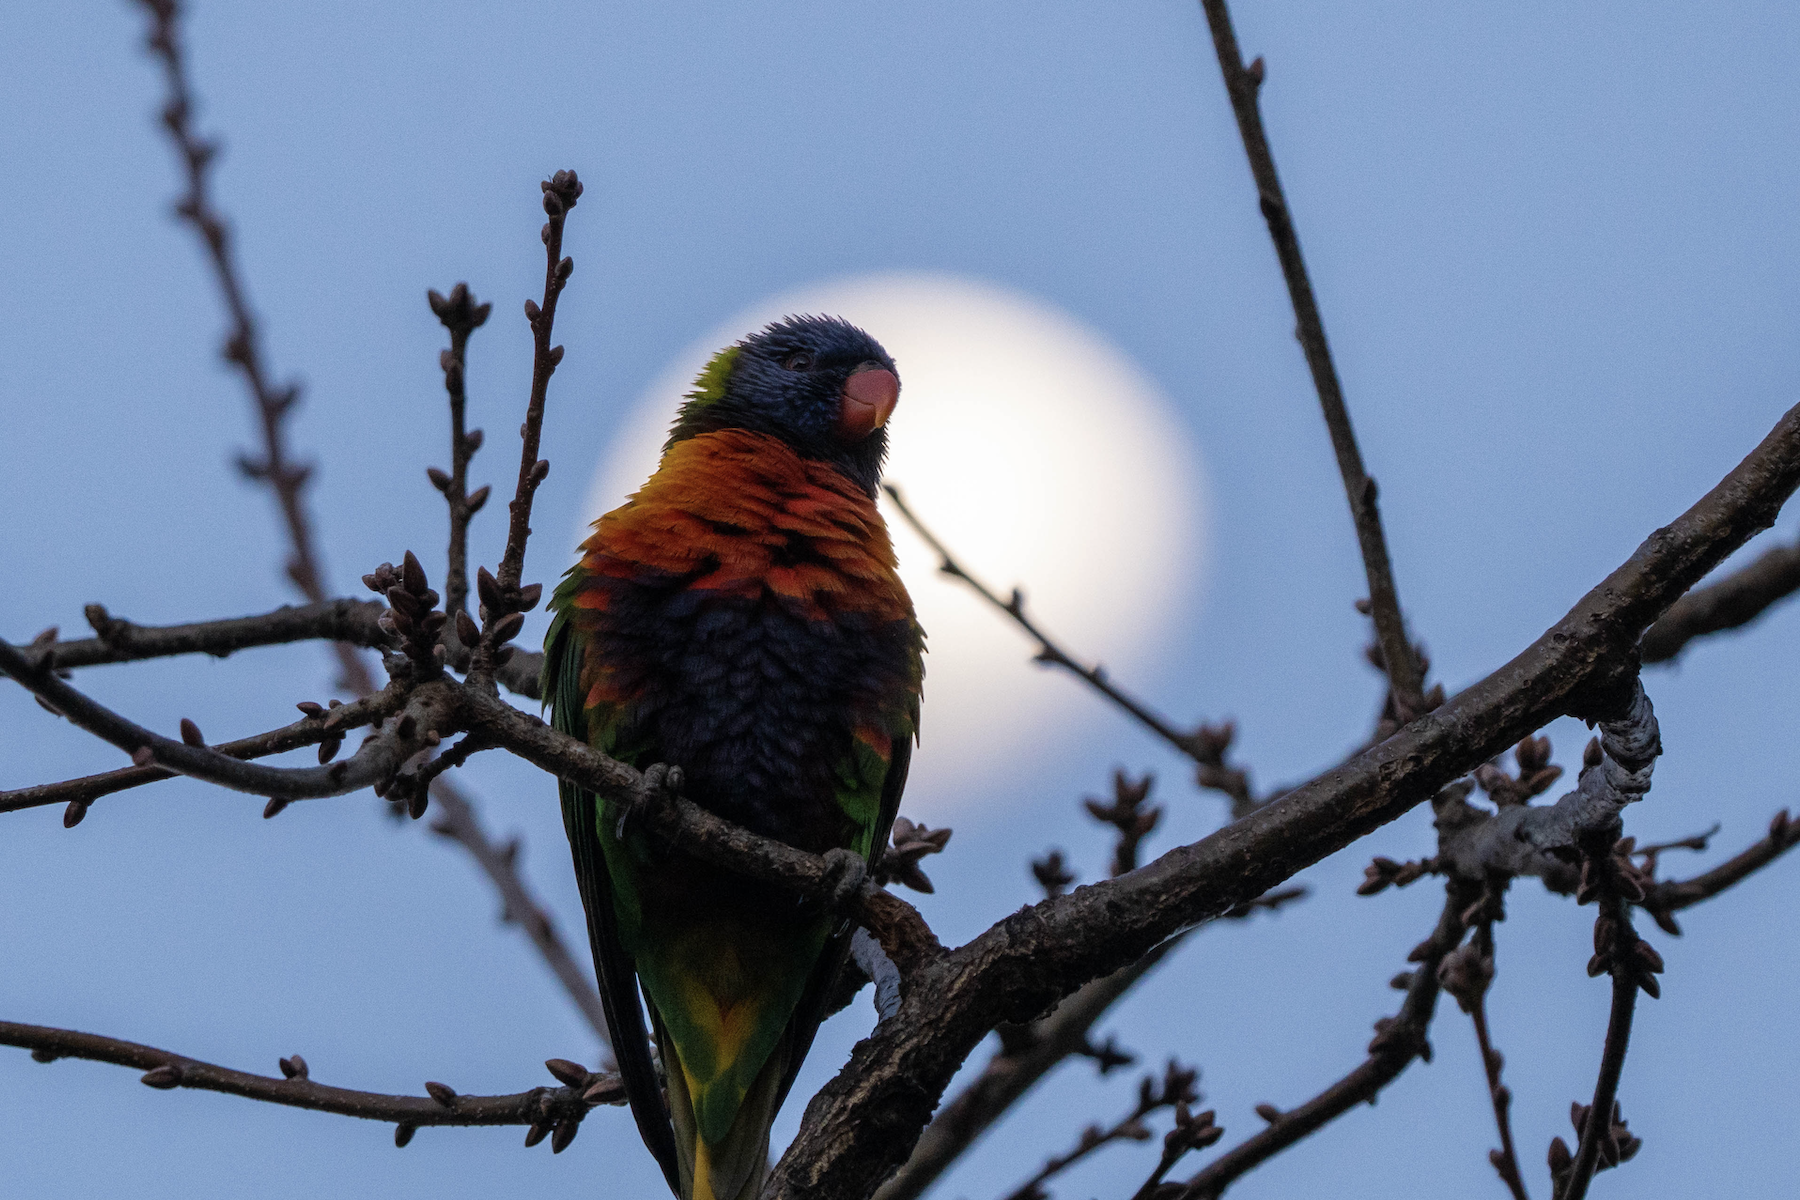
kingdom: Animalia
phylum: Chordata
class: Aves
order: Psittaciformes
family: Psittacidae
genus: Trichoglossus
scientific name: Trichoglossus haematodus
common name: Coconut lorikeet
